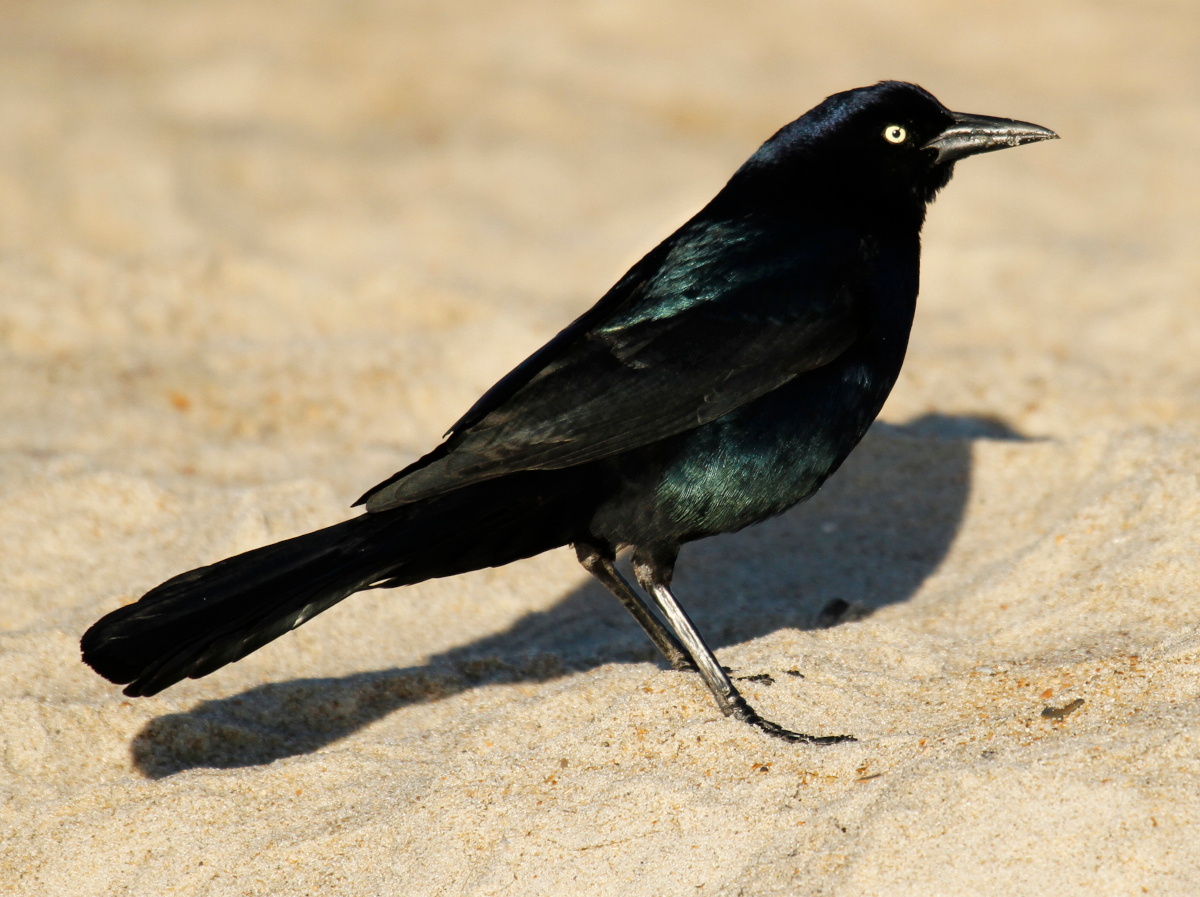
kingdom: Animalia
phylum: Chordata
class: Aves
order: Passeriformes
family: Icteridae
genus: Quiscalus
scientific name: Quiscalus major
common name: Boat-tailed grackle
